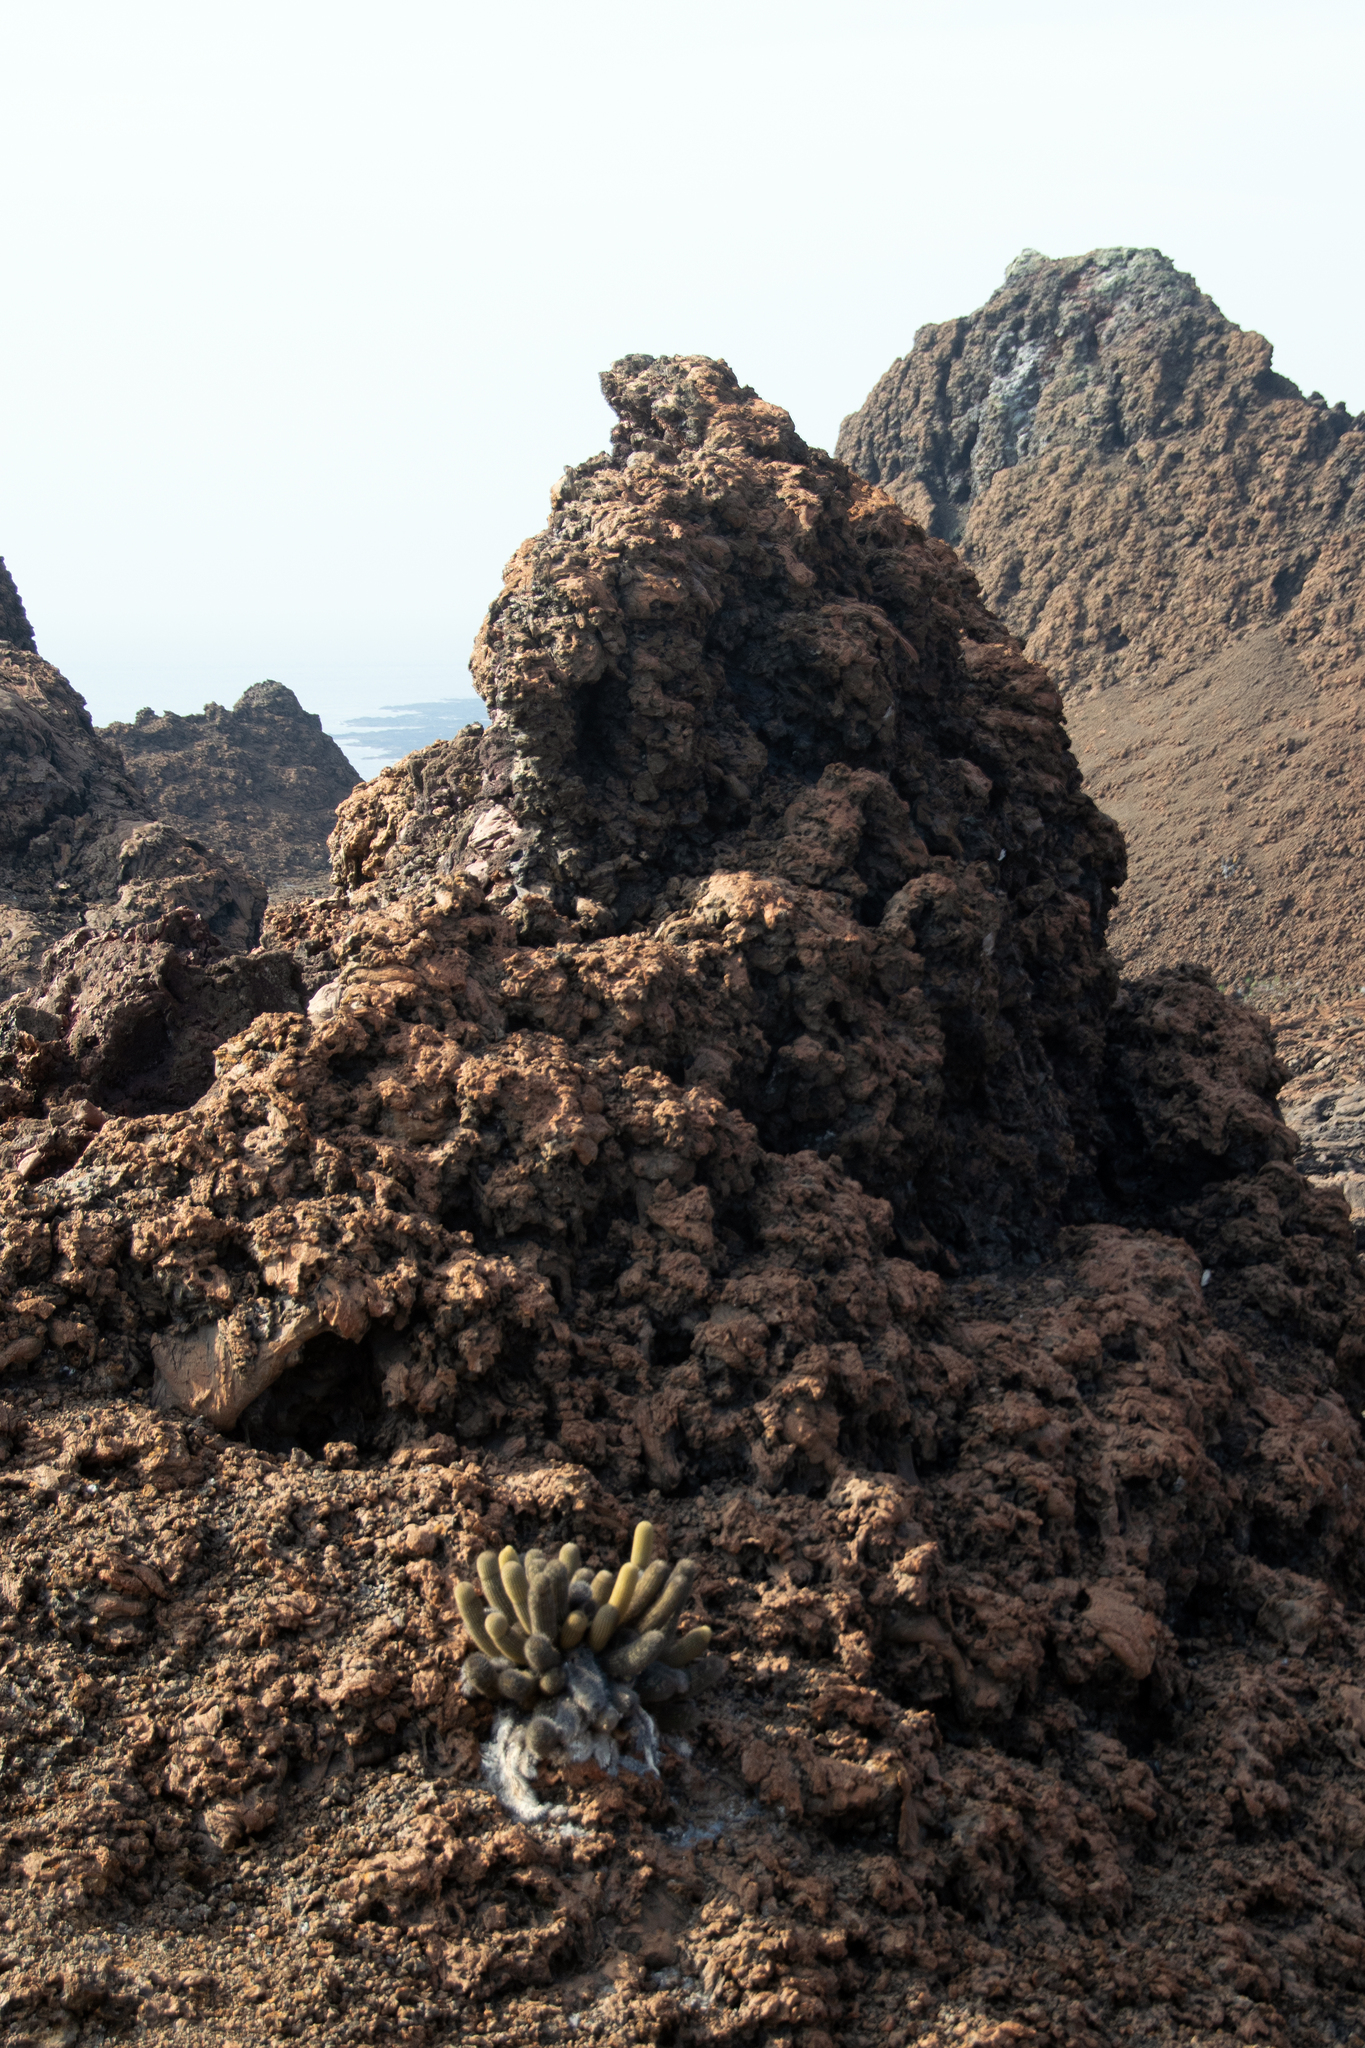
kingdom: Plantae
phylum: Tracheophyta
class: Magnoliopsida
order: Caryophyllales
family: Cactaceae
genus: Brachycereus
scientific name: Brachycereus nesioticus
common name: Lava cactus
